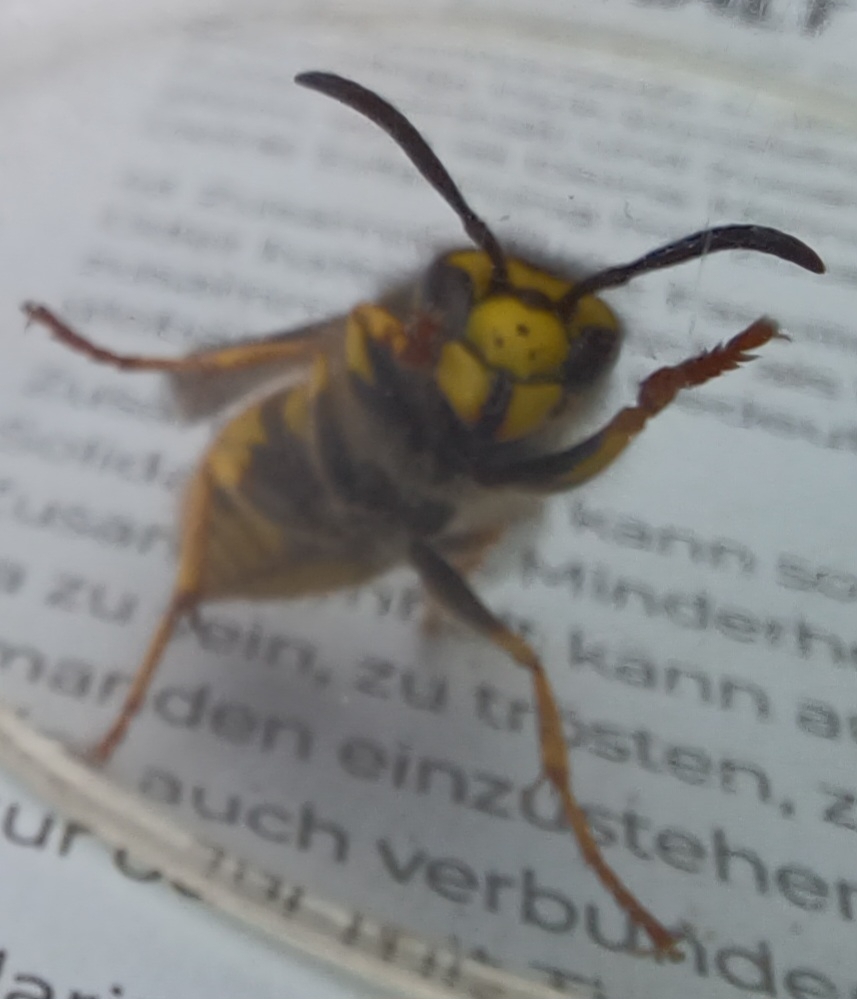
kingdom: Animalia
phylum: Arthropoda
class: Insecta
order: Hymenoptera
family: Vespidae
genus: Vespula
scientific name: Vespula germanica
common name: German wasp
